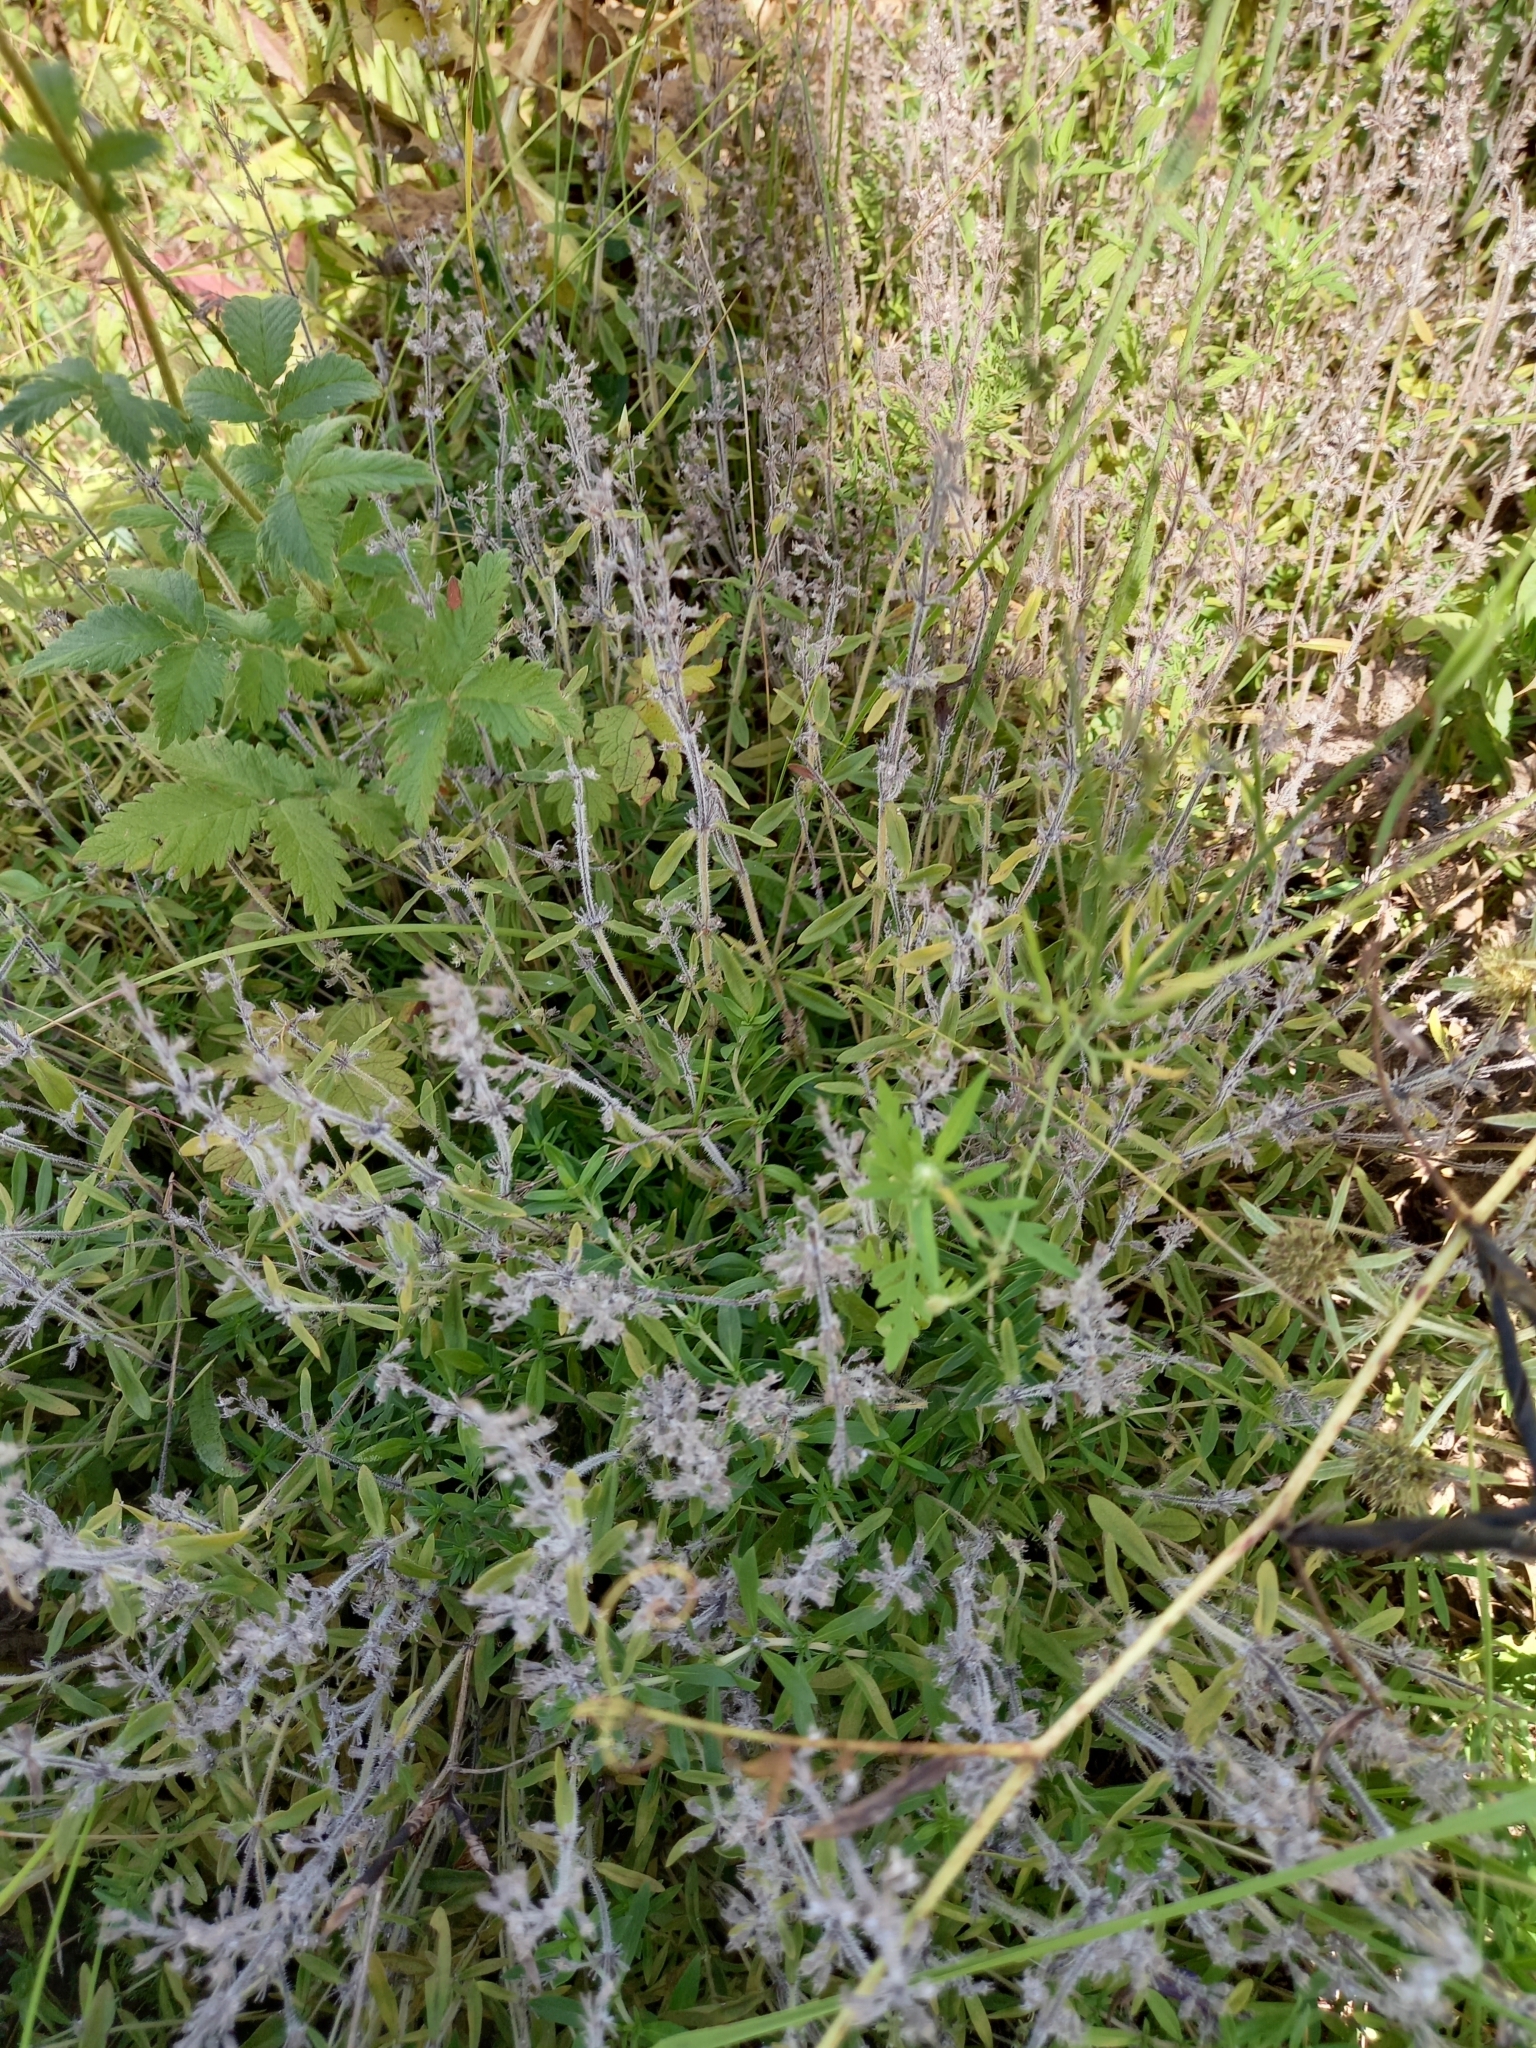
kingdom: Plantae
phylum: Tracheophyta
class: Magnoliopsida
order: Lamiales
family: Lamiaceae
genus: Thymus
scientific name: Thymus pannonicus
